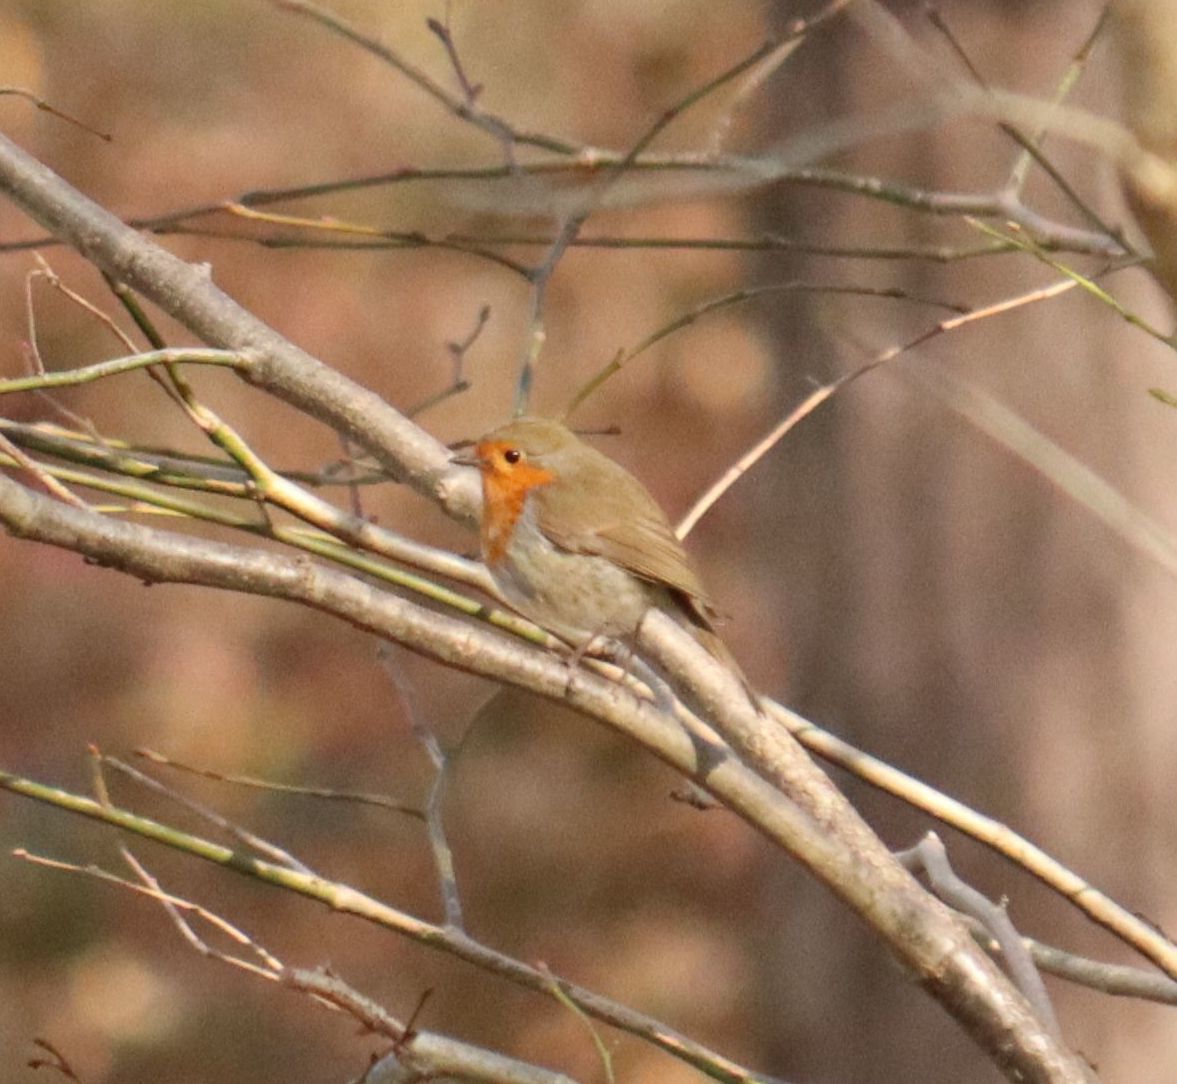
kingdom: Animalia
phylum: Chordata
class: Aves
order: Passeriformes
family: Muscicapidae
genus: Erithacus
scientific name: Erithacus rubecula
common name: European robin
